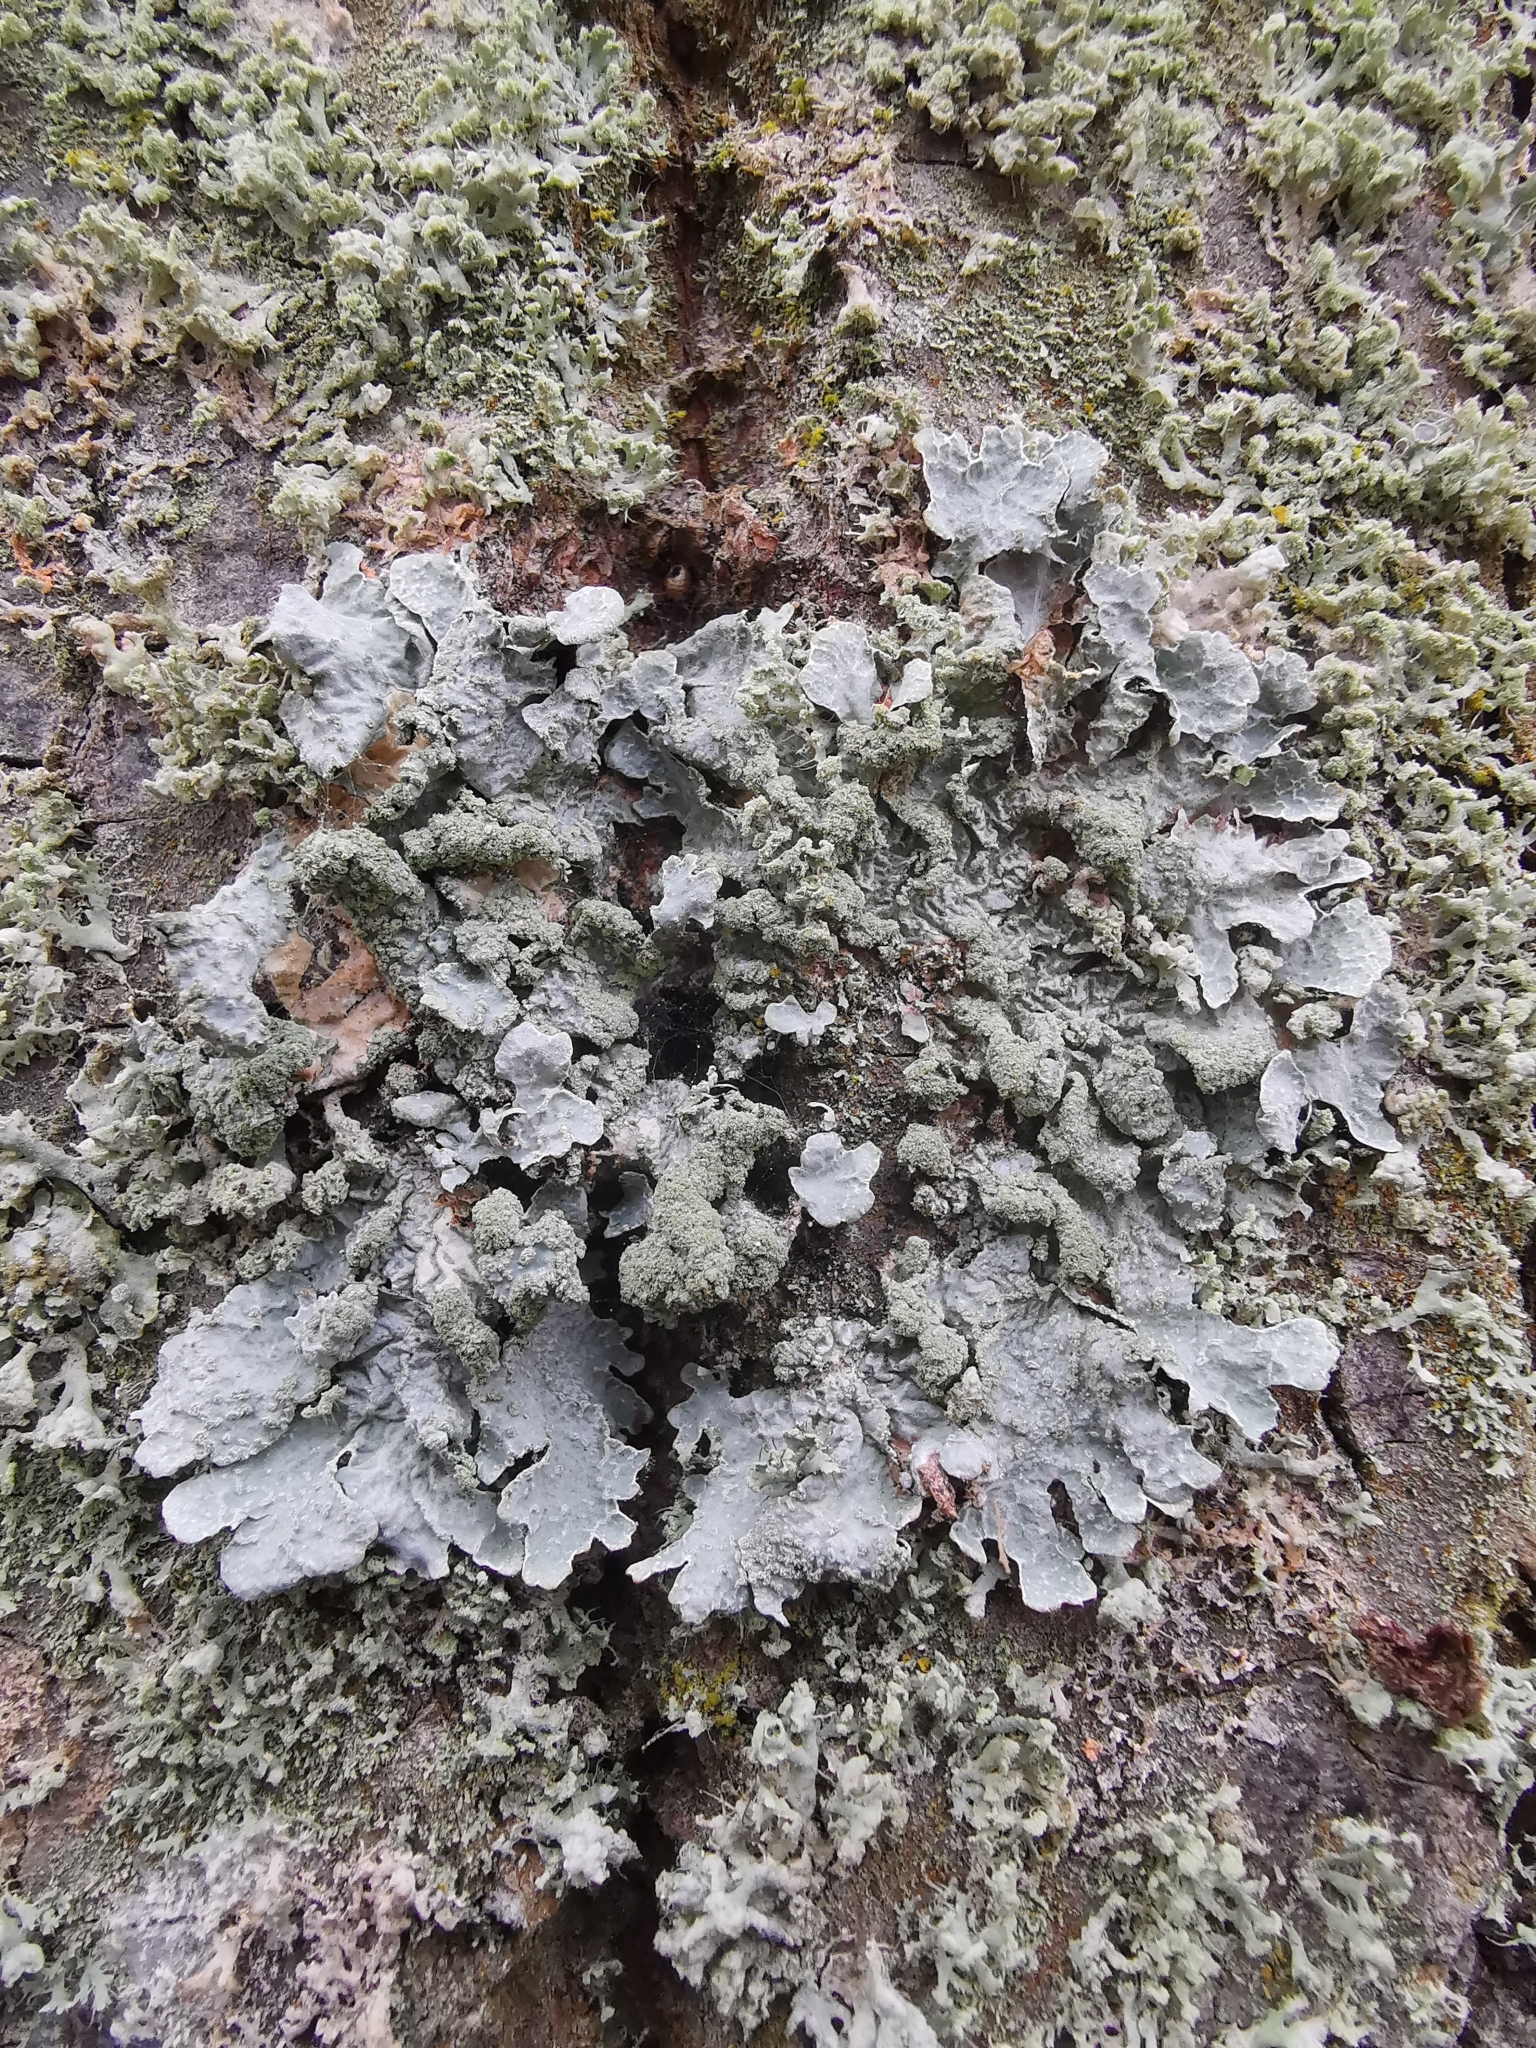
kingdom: Fungi
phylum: Ascomycota
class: Lecanoromycetes
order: Lecanorales
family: Parmeliaceae
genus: Parmelia
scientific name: Parmelia sulcata
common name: Netted shield lichen
